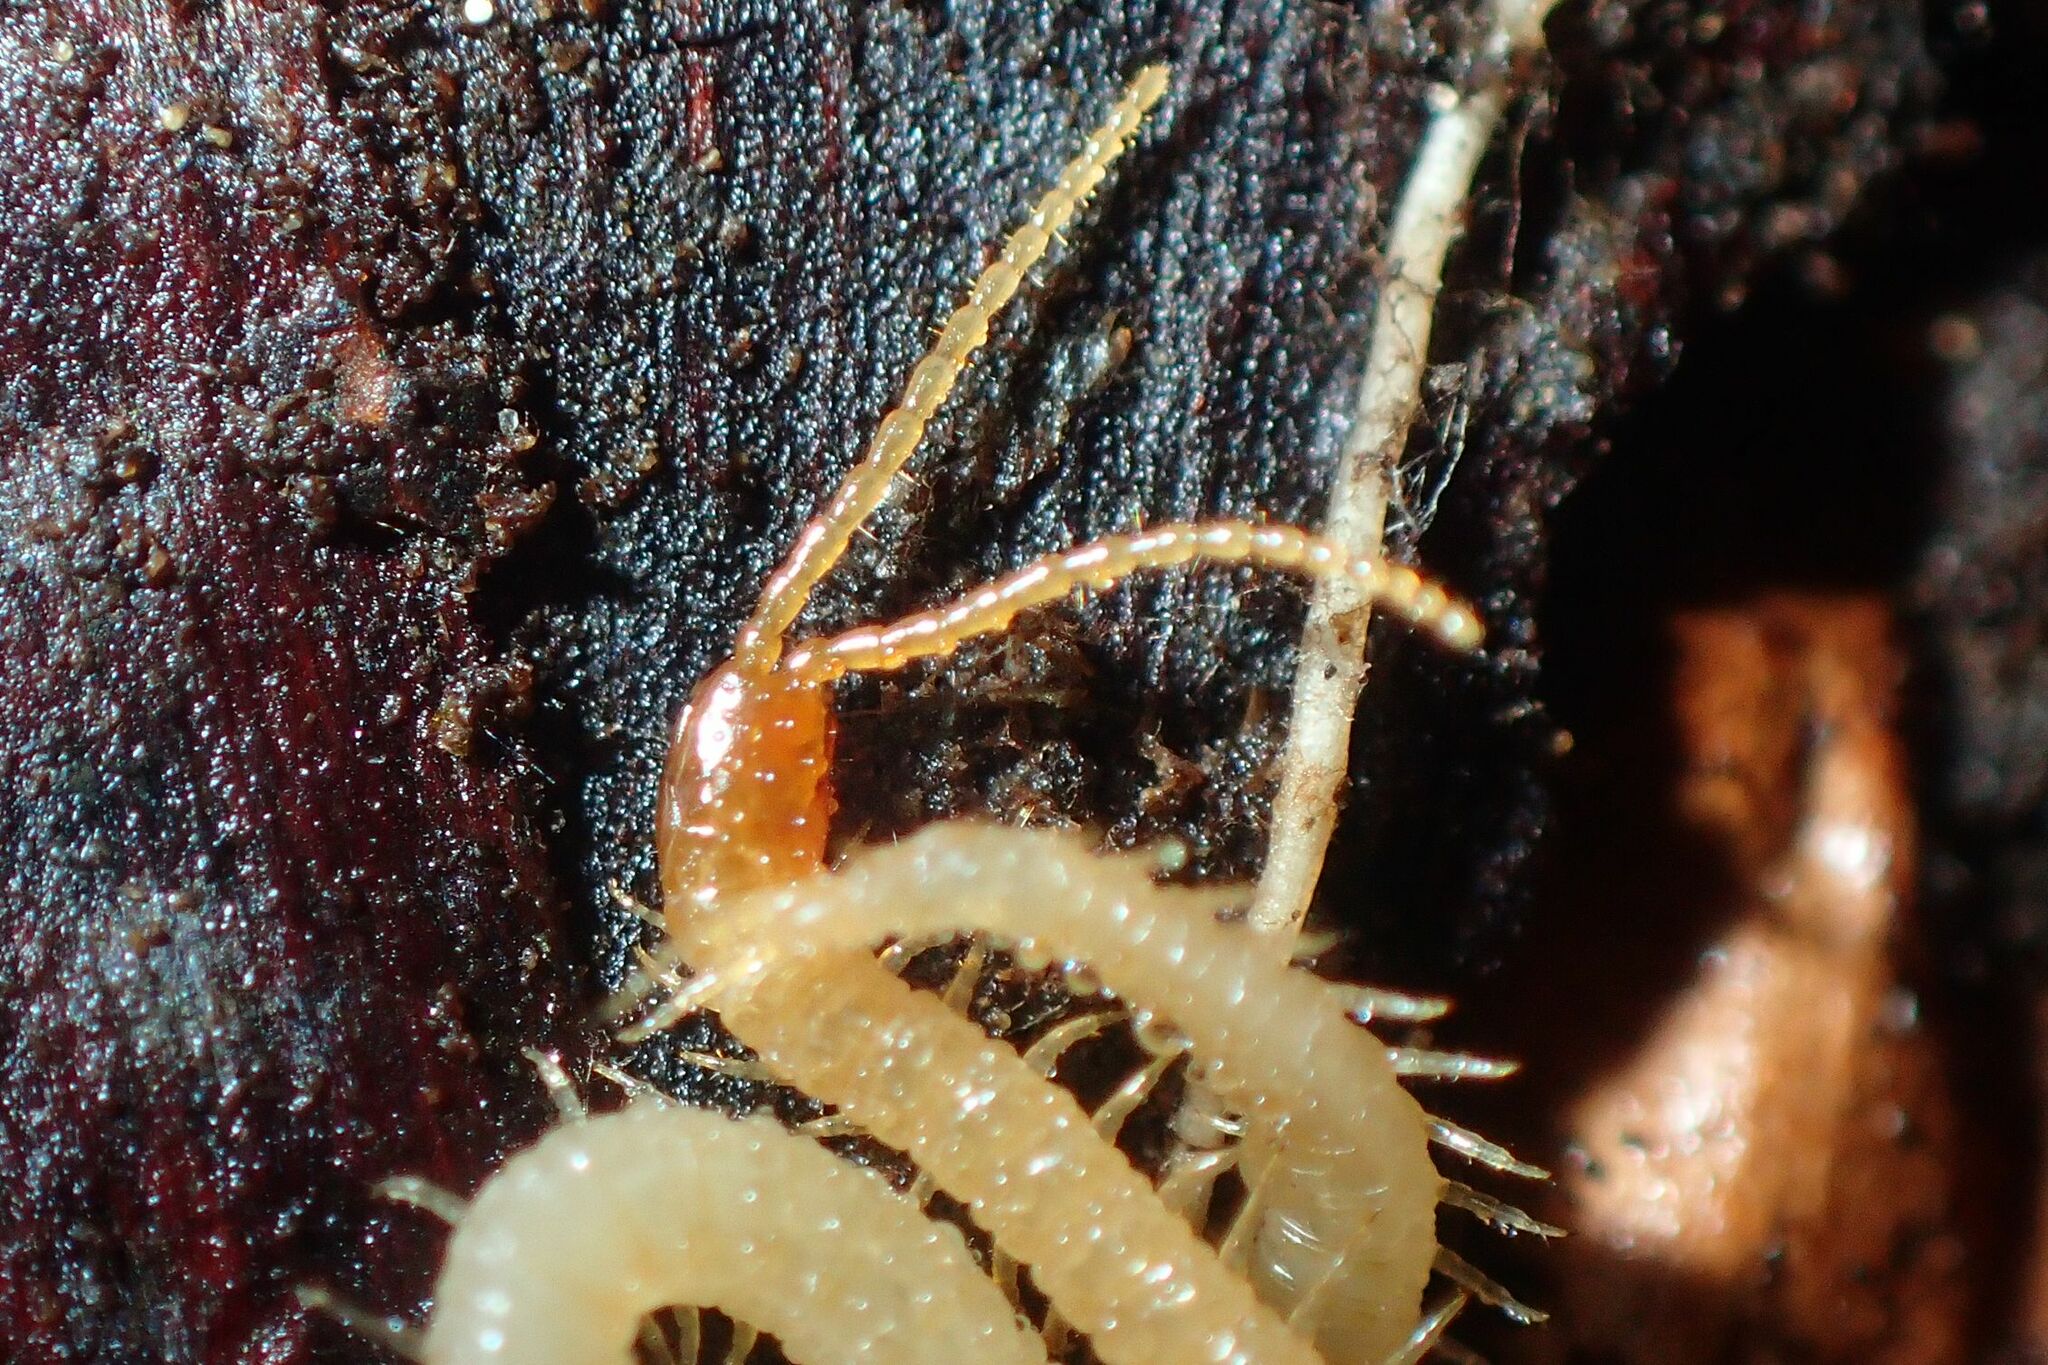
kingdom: Animalia
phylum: Arthropoda
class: Chilopoda
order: Geophilomorpha
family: Geophilidae
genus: Geophilus
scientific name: Geophilus flavus
